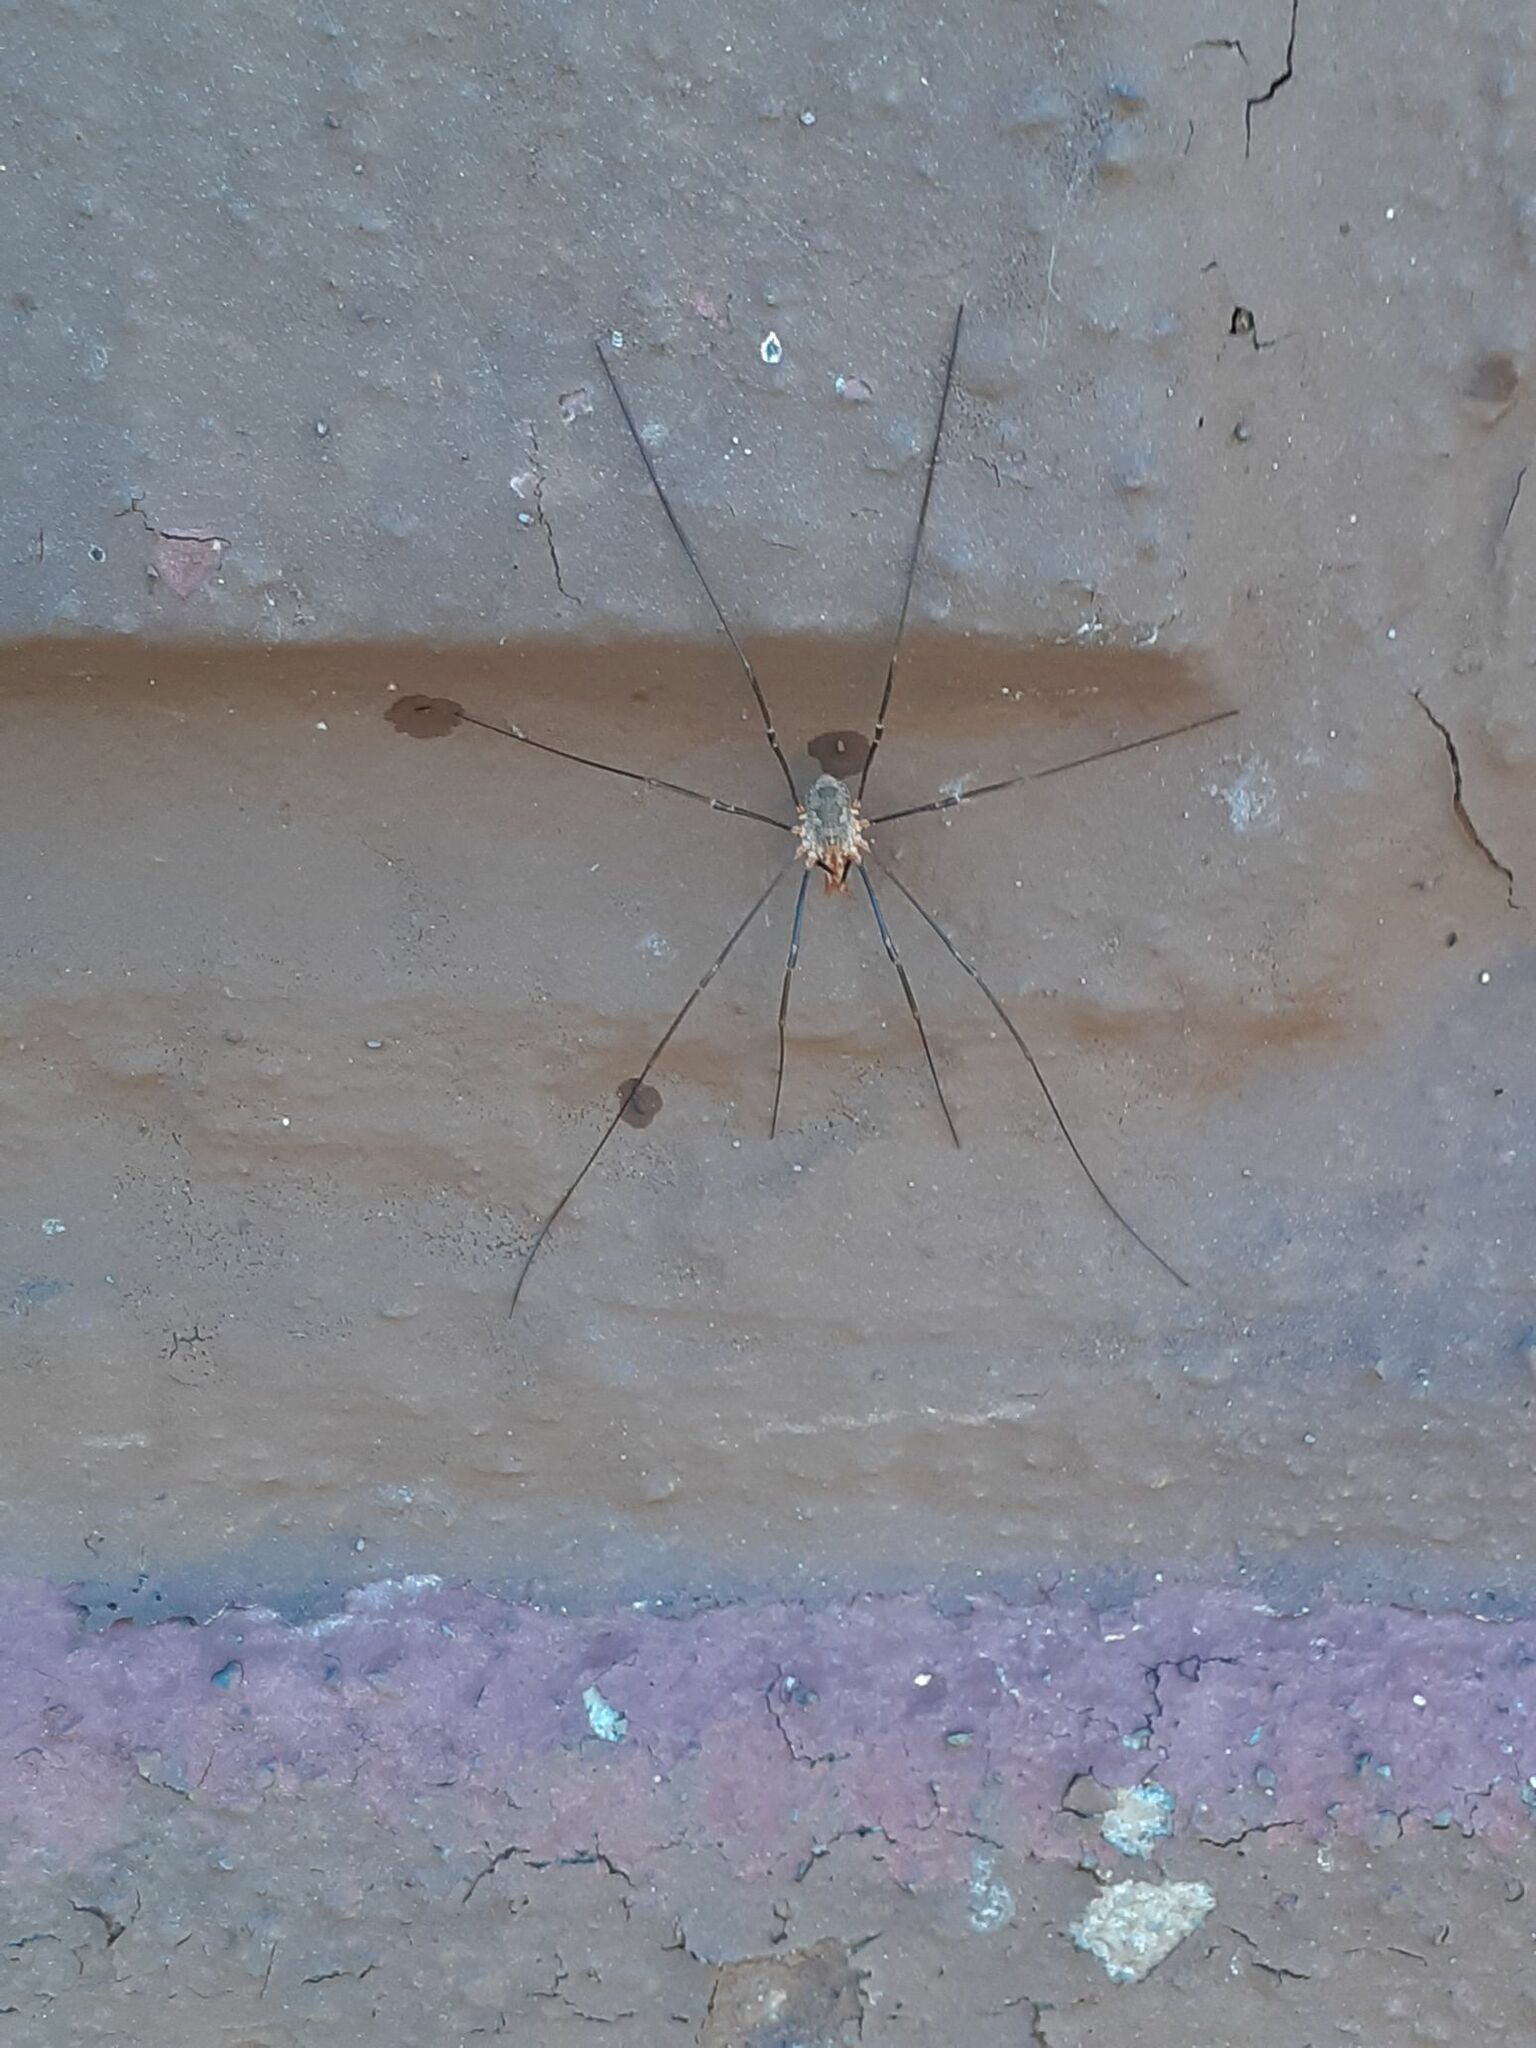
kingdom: Animalia
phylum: Arthropoda
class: Arachnida
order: Opiliones
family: Phalangiidae
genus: Phalangium
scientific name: Phalangium opilio
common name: Daddy longleg
